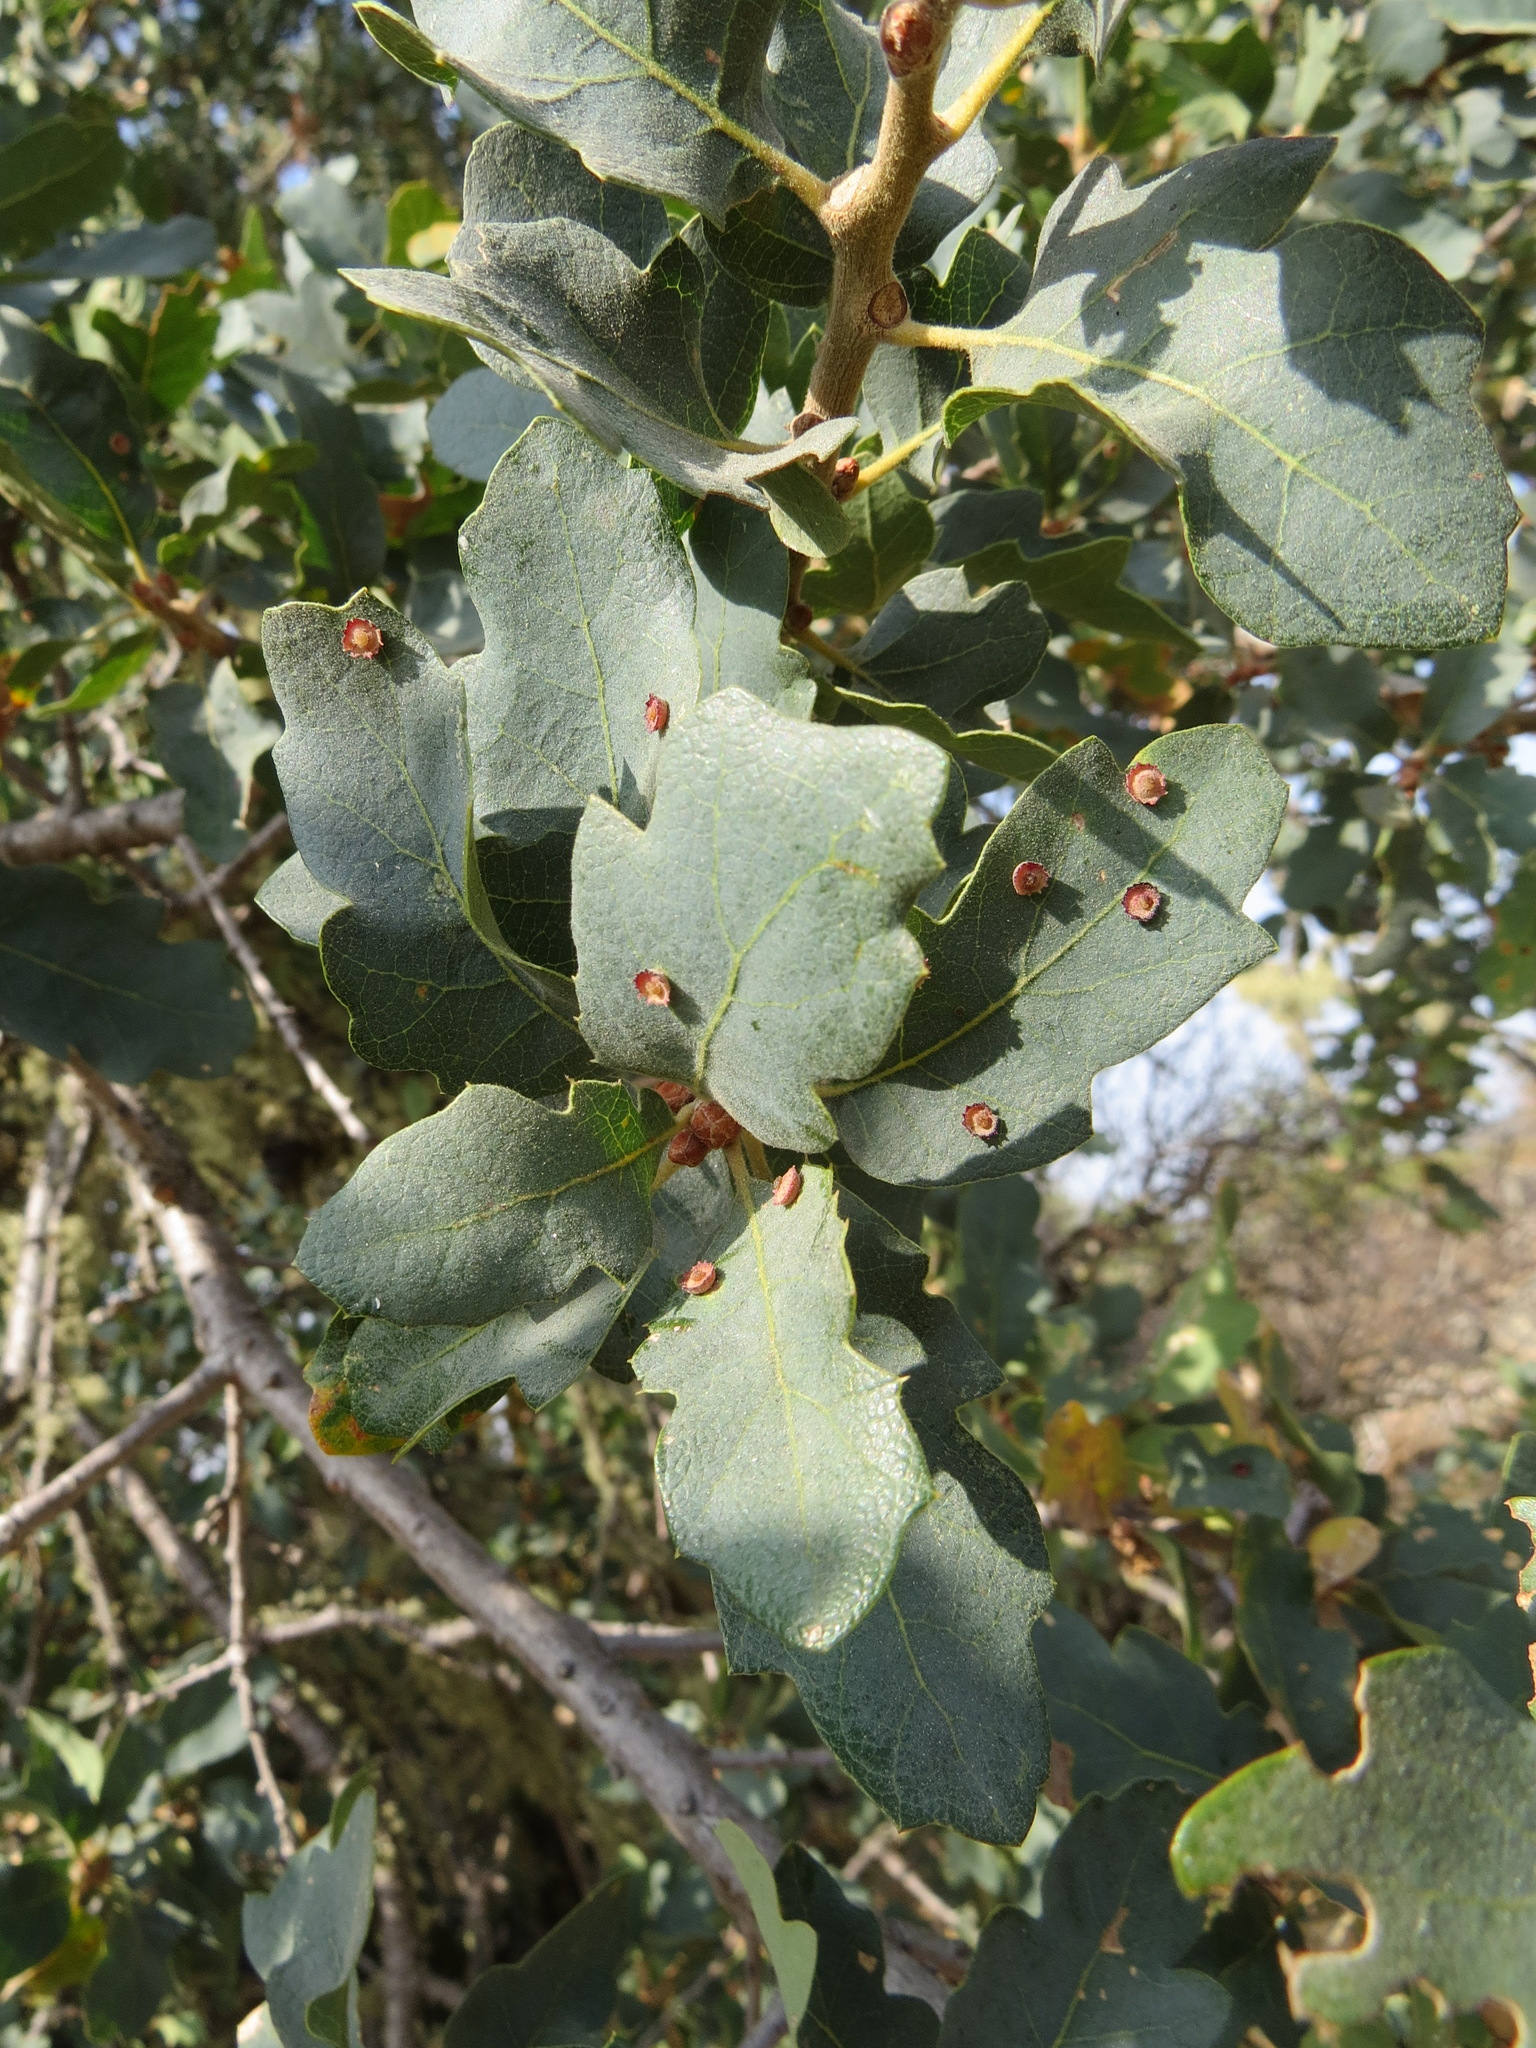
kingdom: Animalia
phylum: Arthropoda
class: Insecta
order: Hymenoptera
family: Cynipidae
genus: Andricus
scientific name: Andricus
